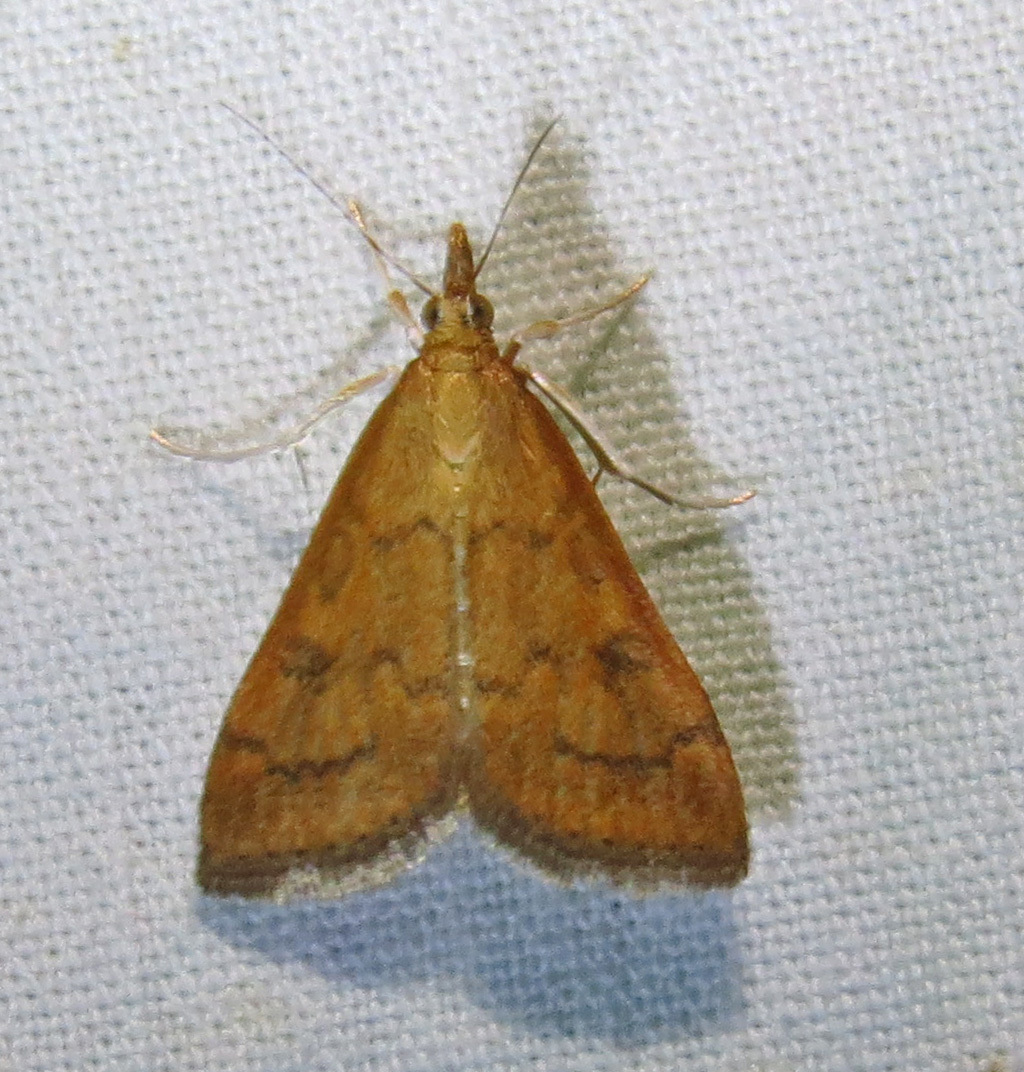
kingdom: Animalia
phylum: Arthropoda
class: Insecta
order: Lepidoptera
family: Crambidae
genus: Udea
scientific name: Udea rubigalis
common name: Celery leaftier moth
